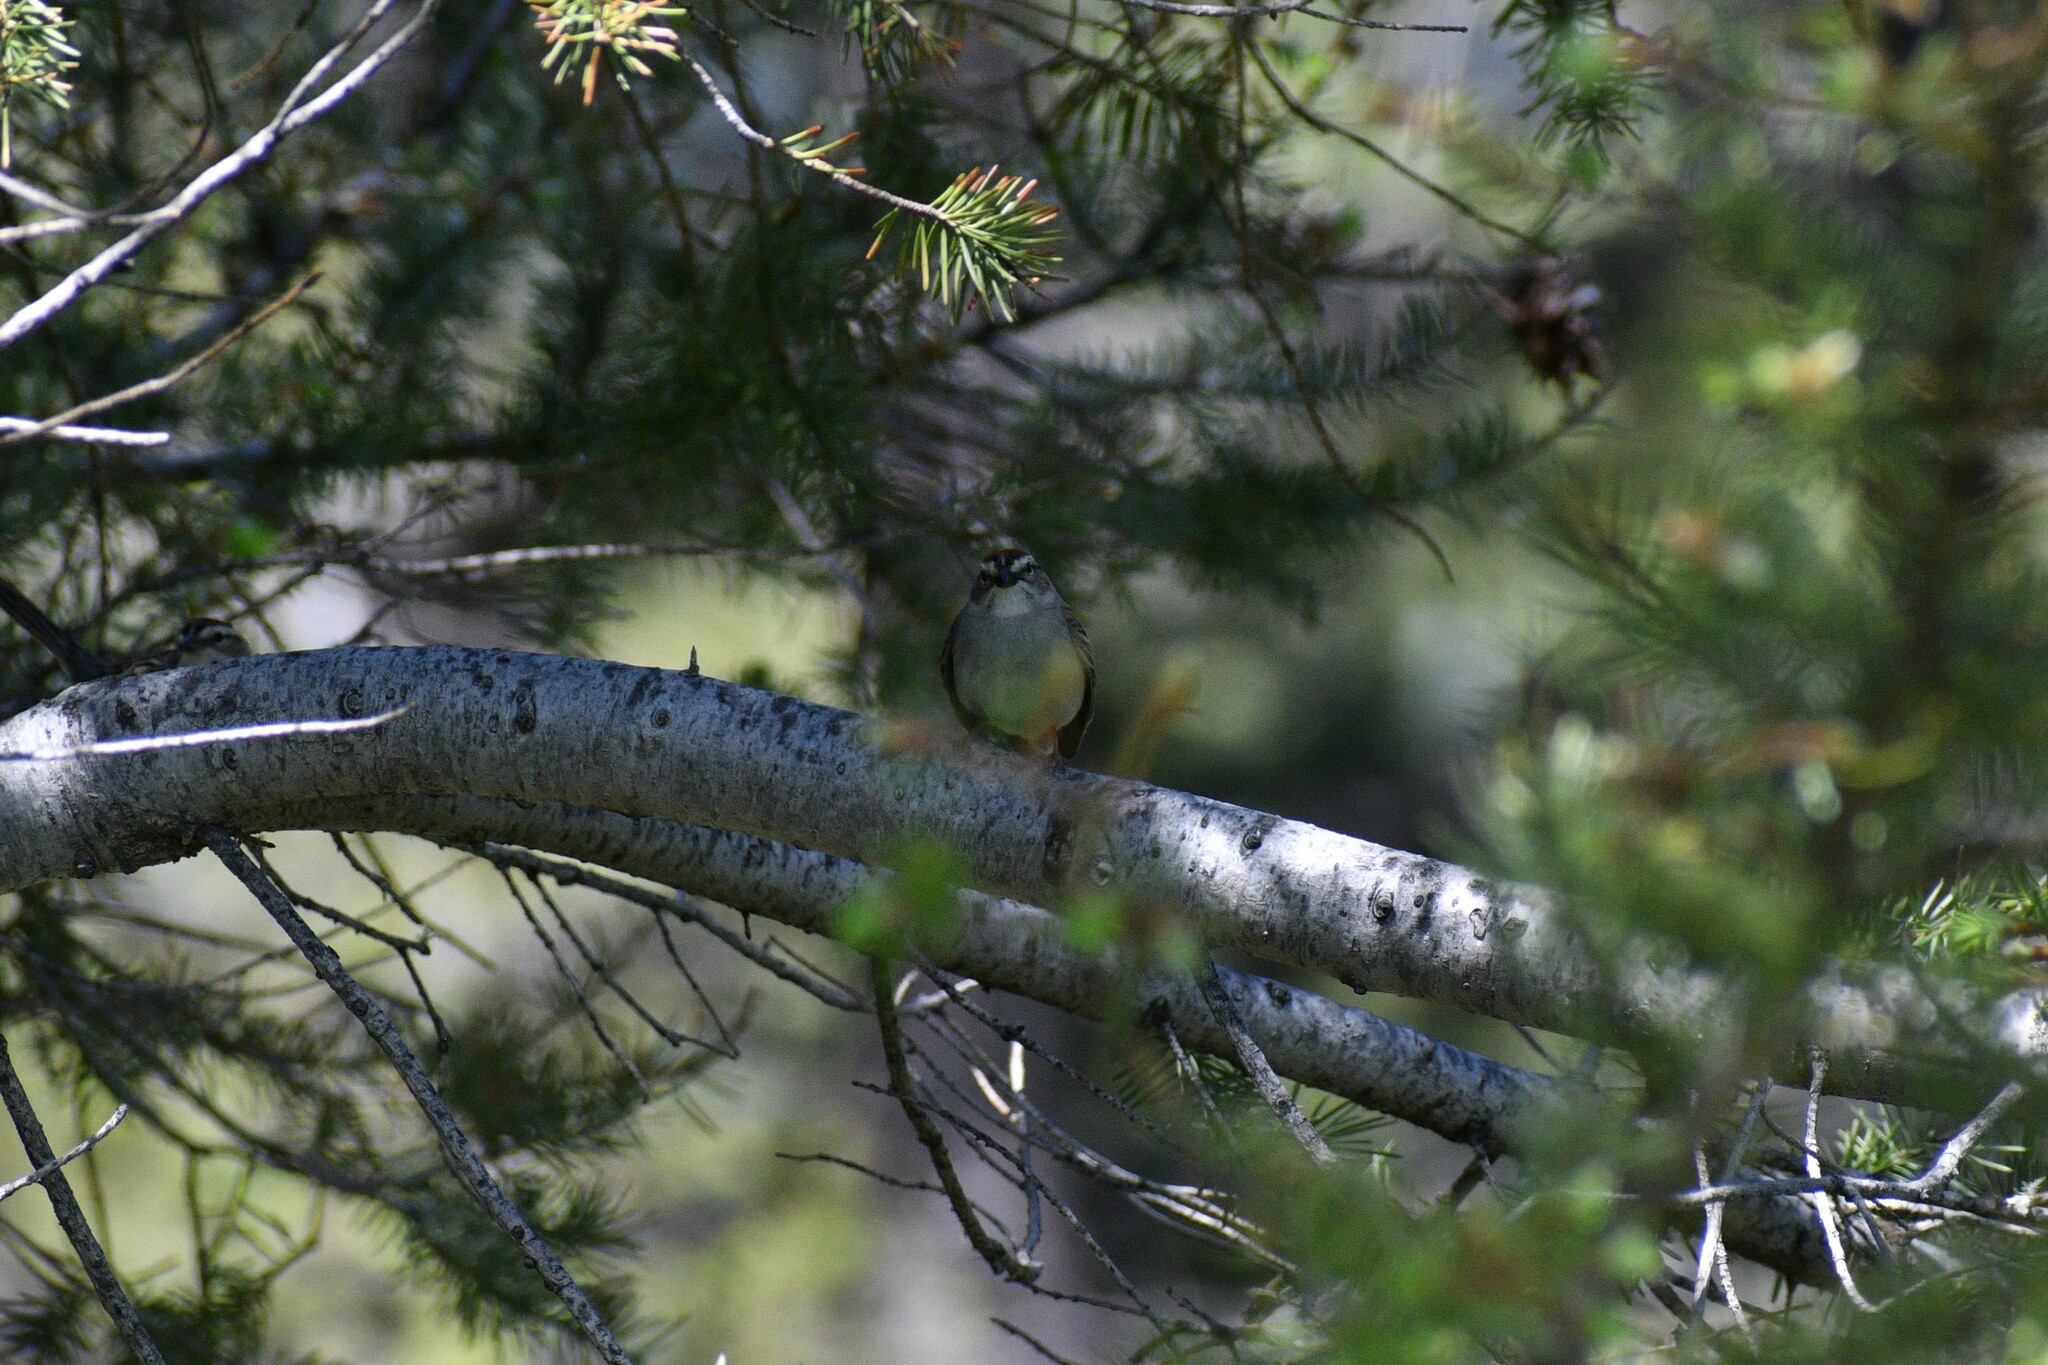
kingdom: Animalia
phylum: Chordata
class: Aves
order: Passeriformes
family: Passerellidae
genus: Spizella
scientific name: Spizella passerina
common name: Chipping sparrow
